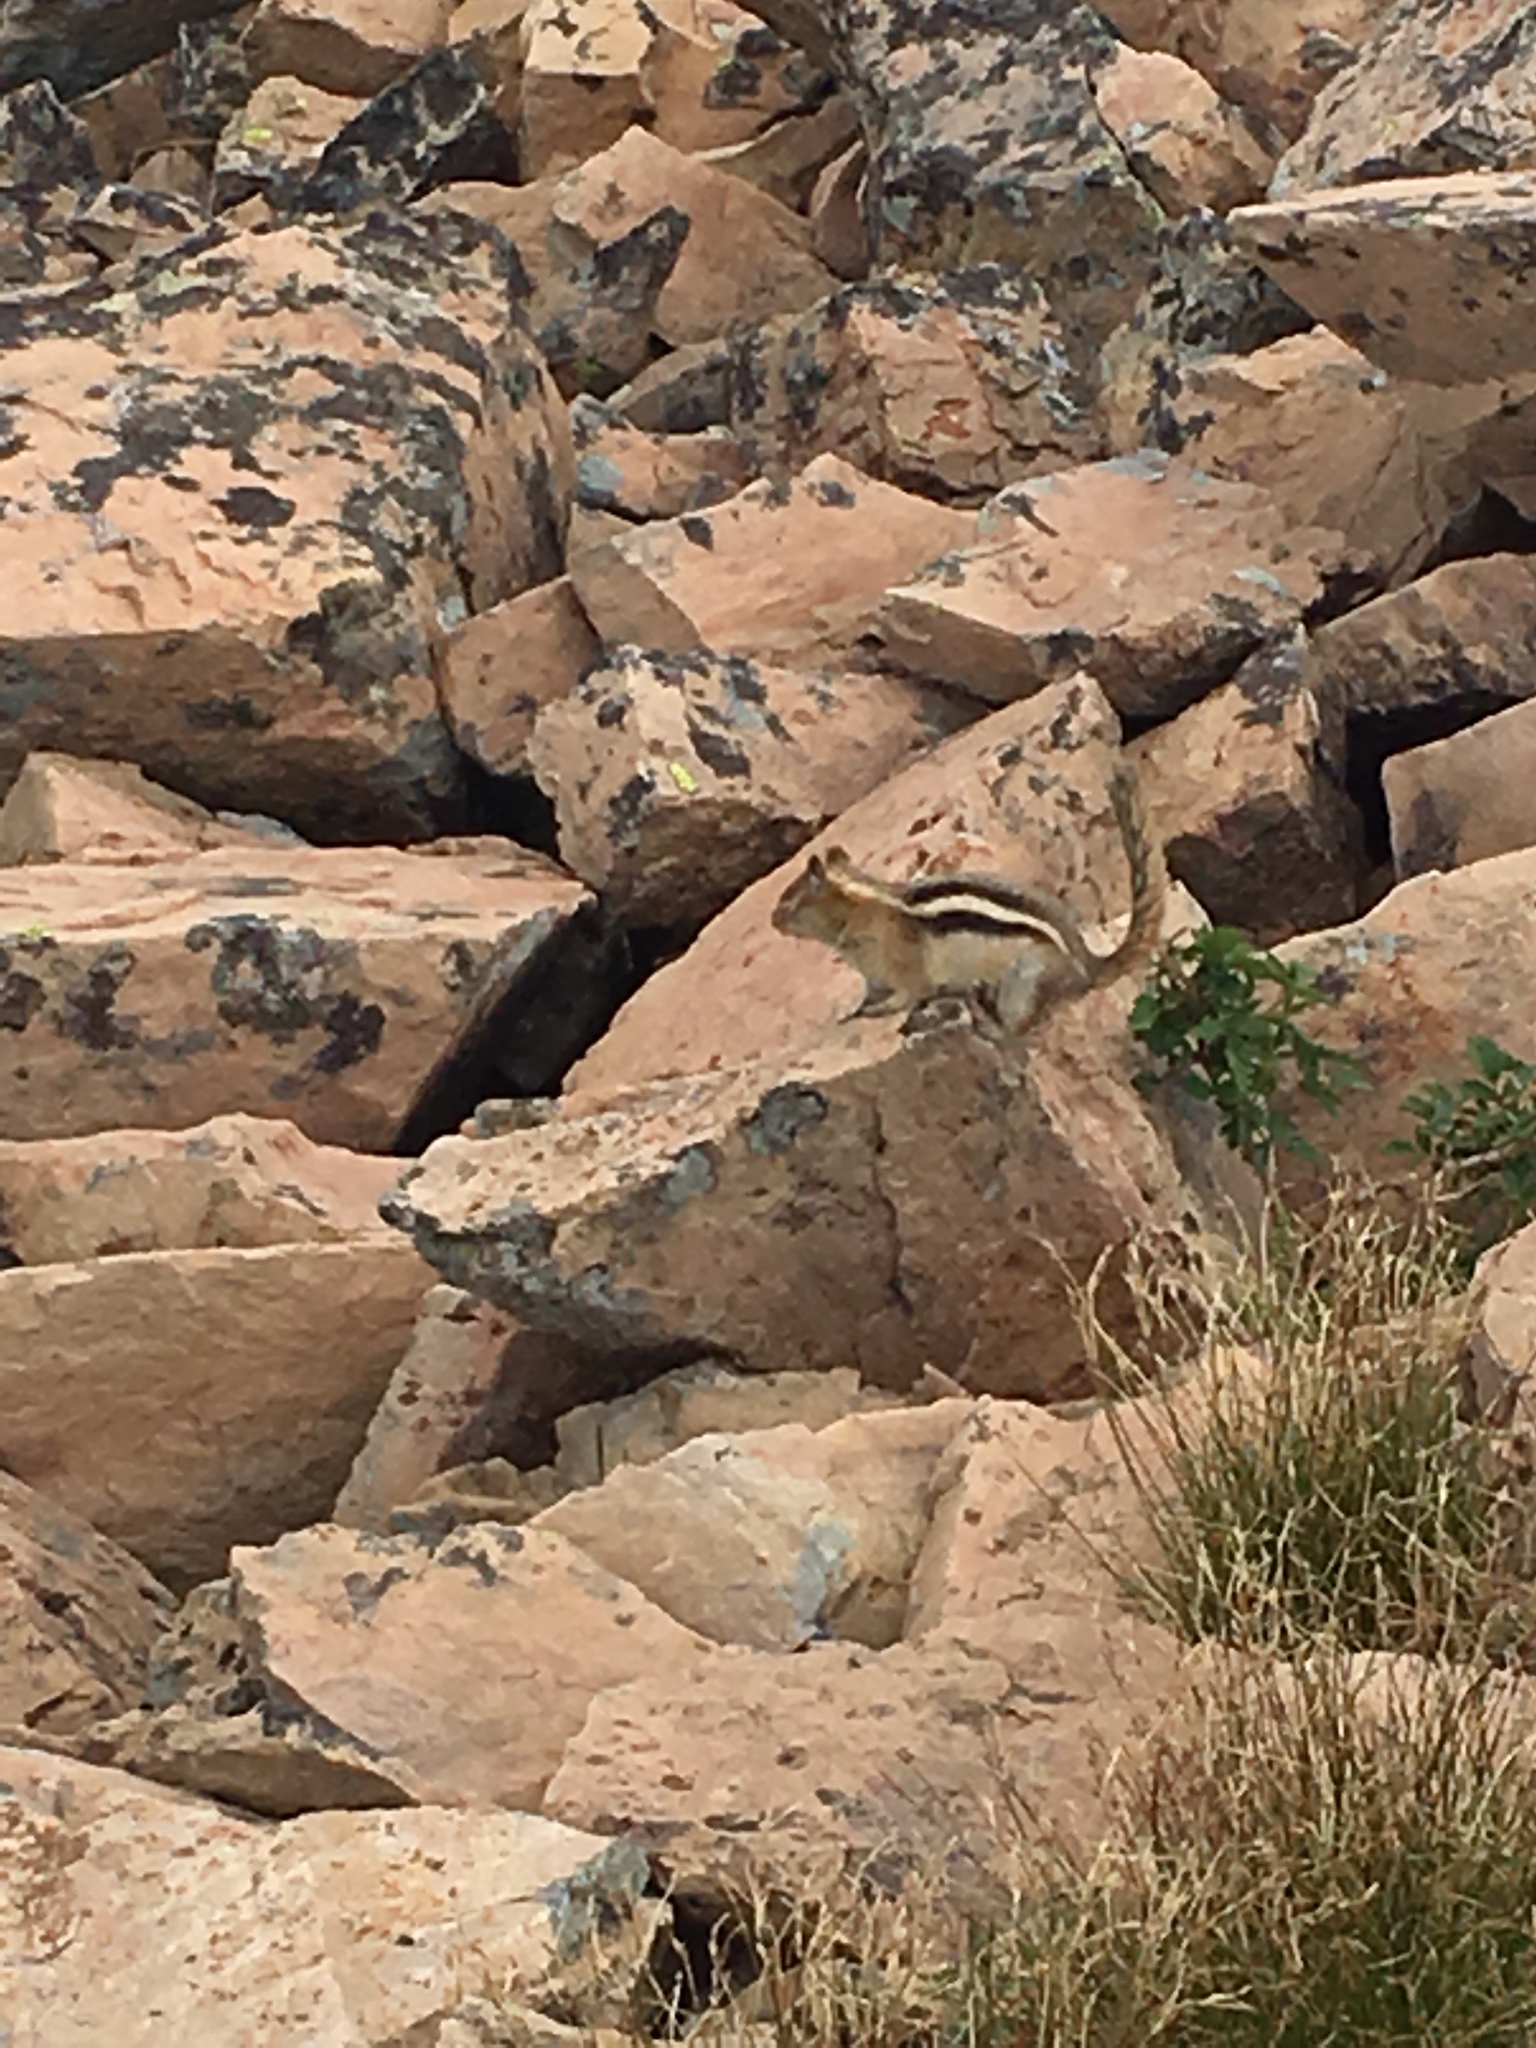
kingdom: Animalia
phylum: Chordata
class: Mammalia
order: Rodentia
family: Sciuridae
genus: Callospermophilus
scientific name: Callospermophilus lateralis
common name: Golden-mantled ground squirrel
